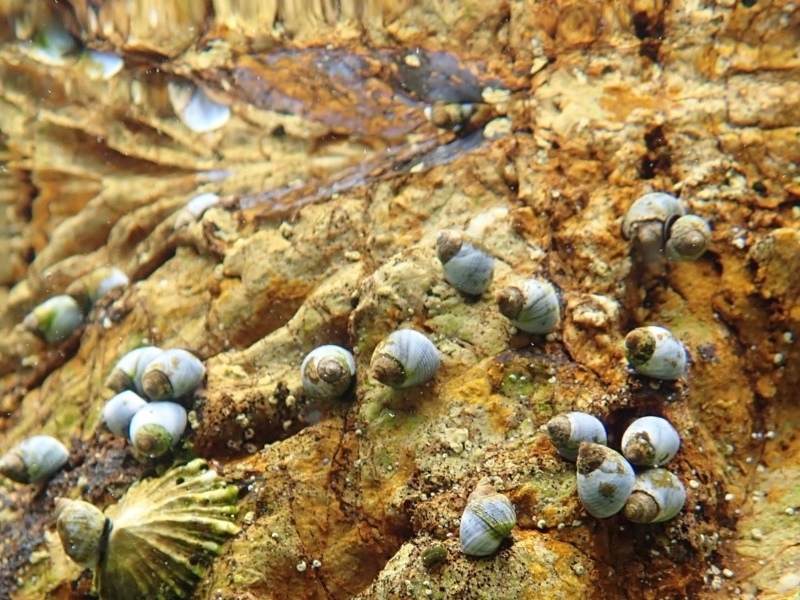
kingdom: Animalia
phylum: Mollusca
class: Gastropoda
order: Littorinimorpha
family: Littorinidae
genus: Austrolittorina
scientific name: Austrolittorina unifasciata
